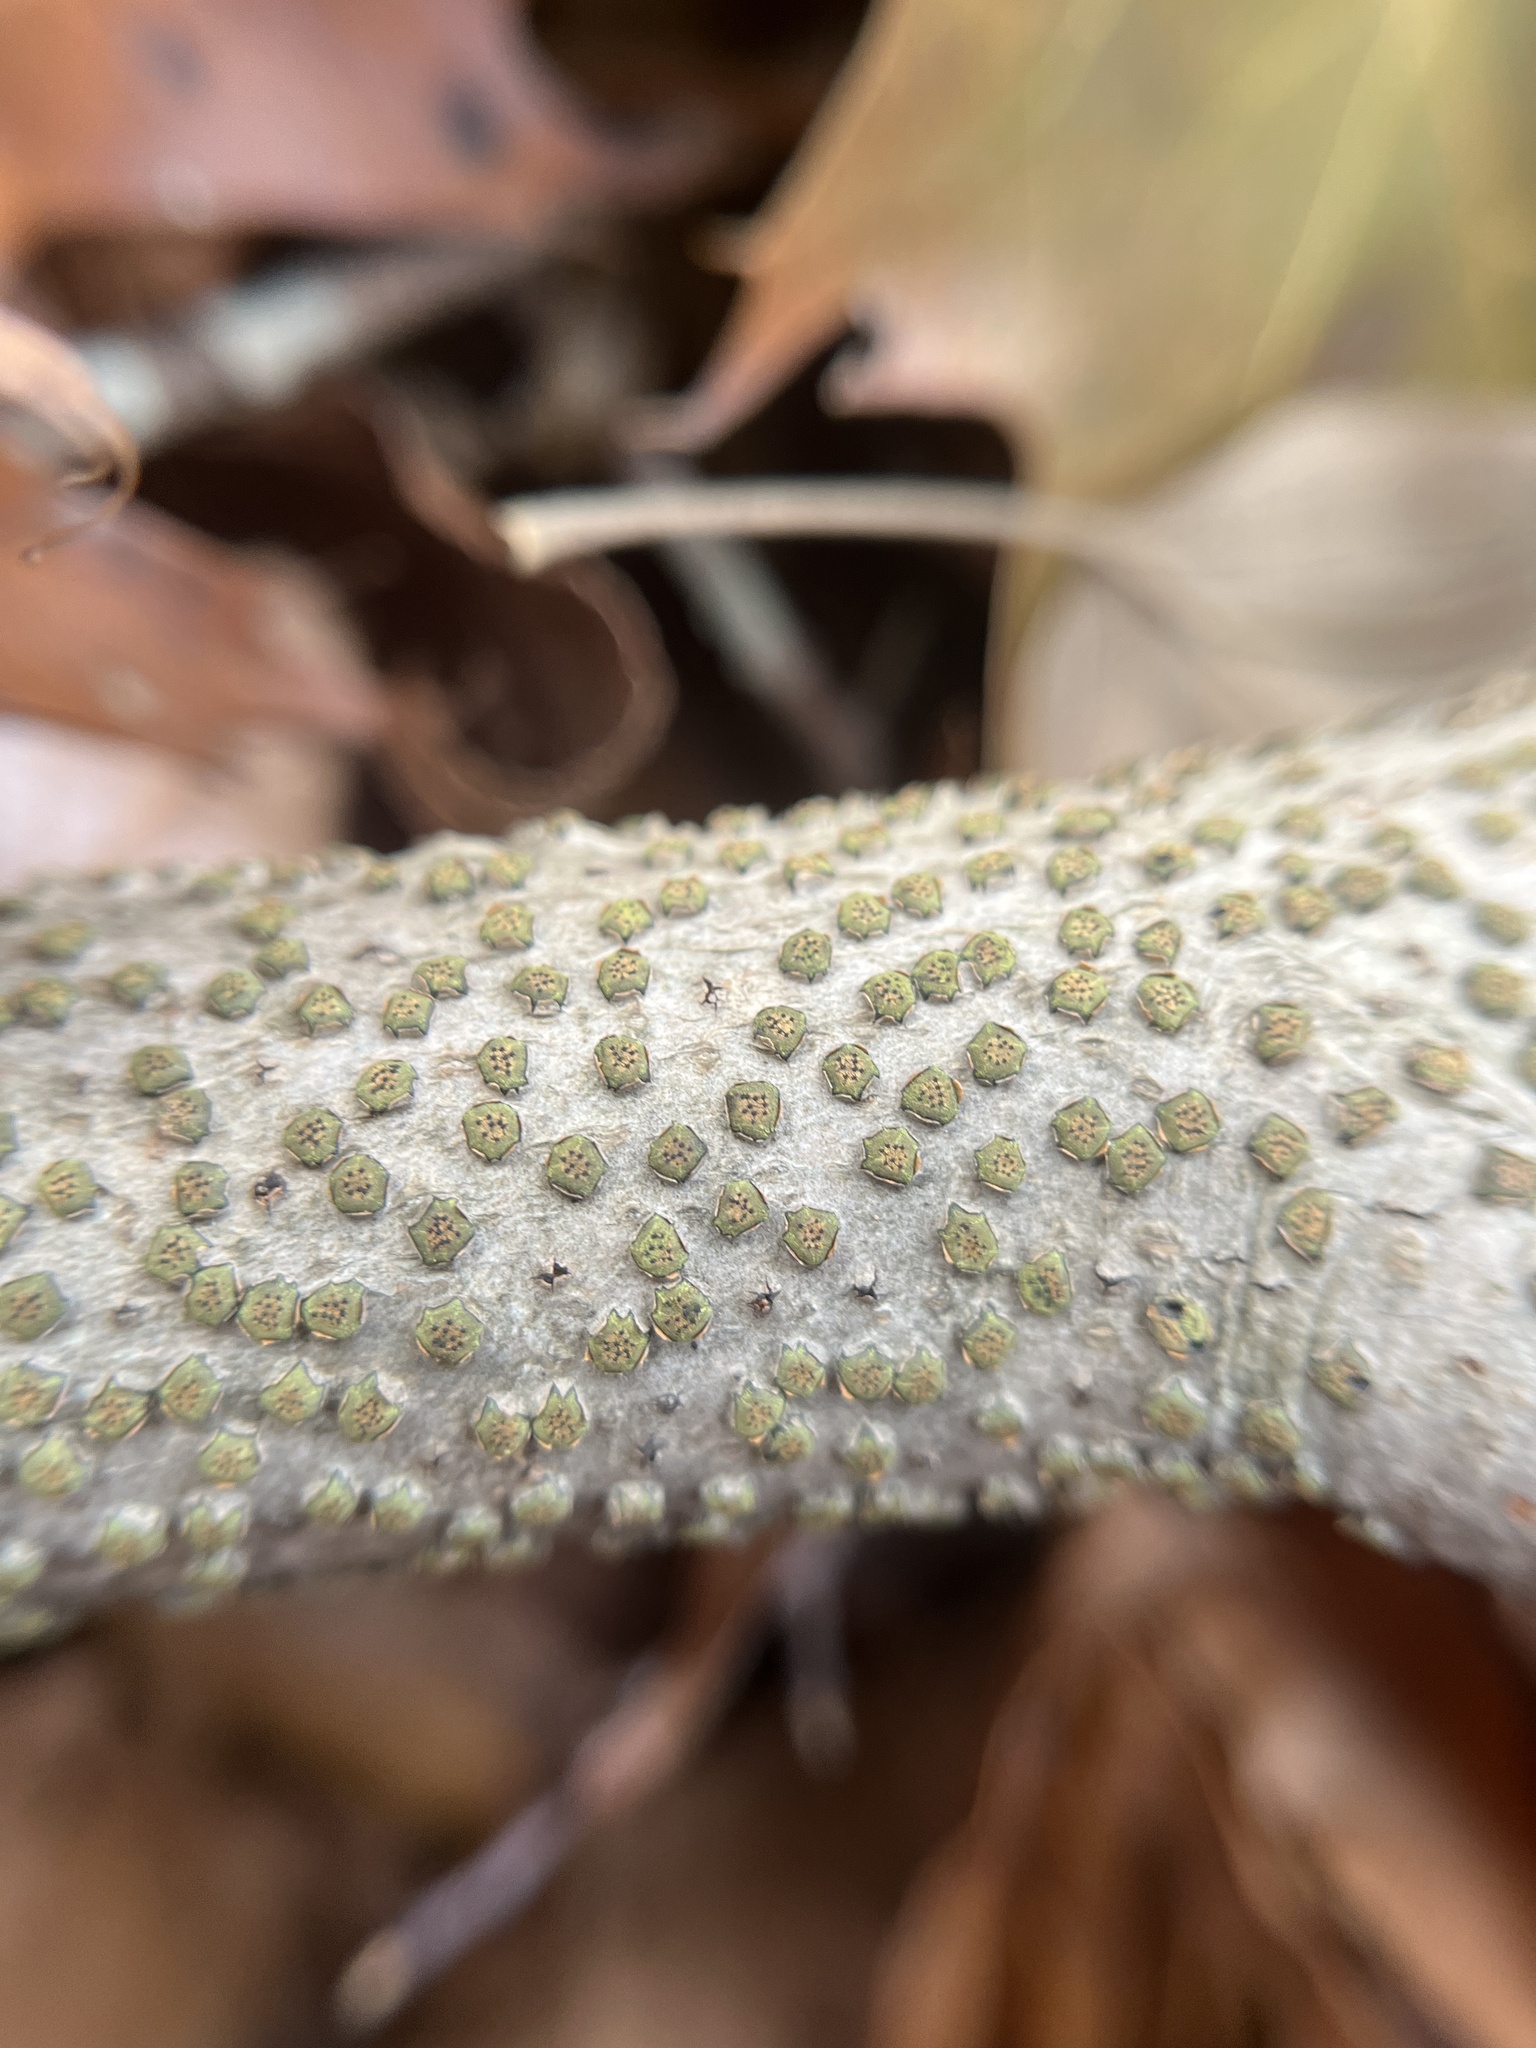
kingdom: Fungi
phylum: Ascomycota
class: Sordariomycetes
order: Xylariales
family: Diatrypaceae
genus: Diatrype
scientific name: Diatrype virescens
